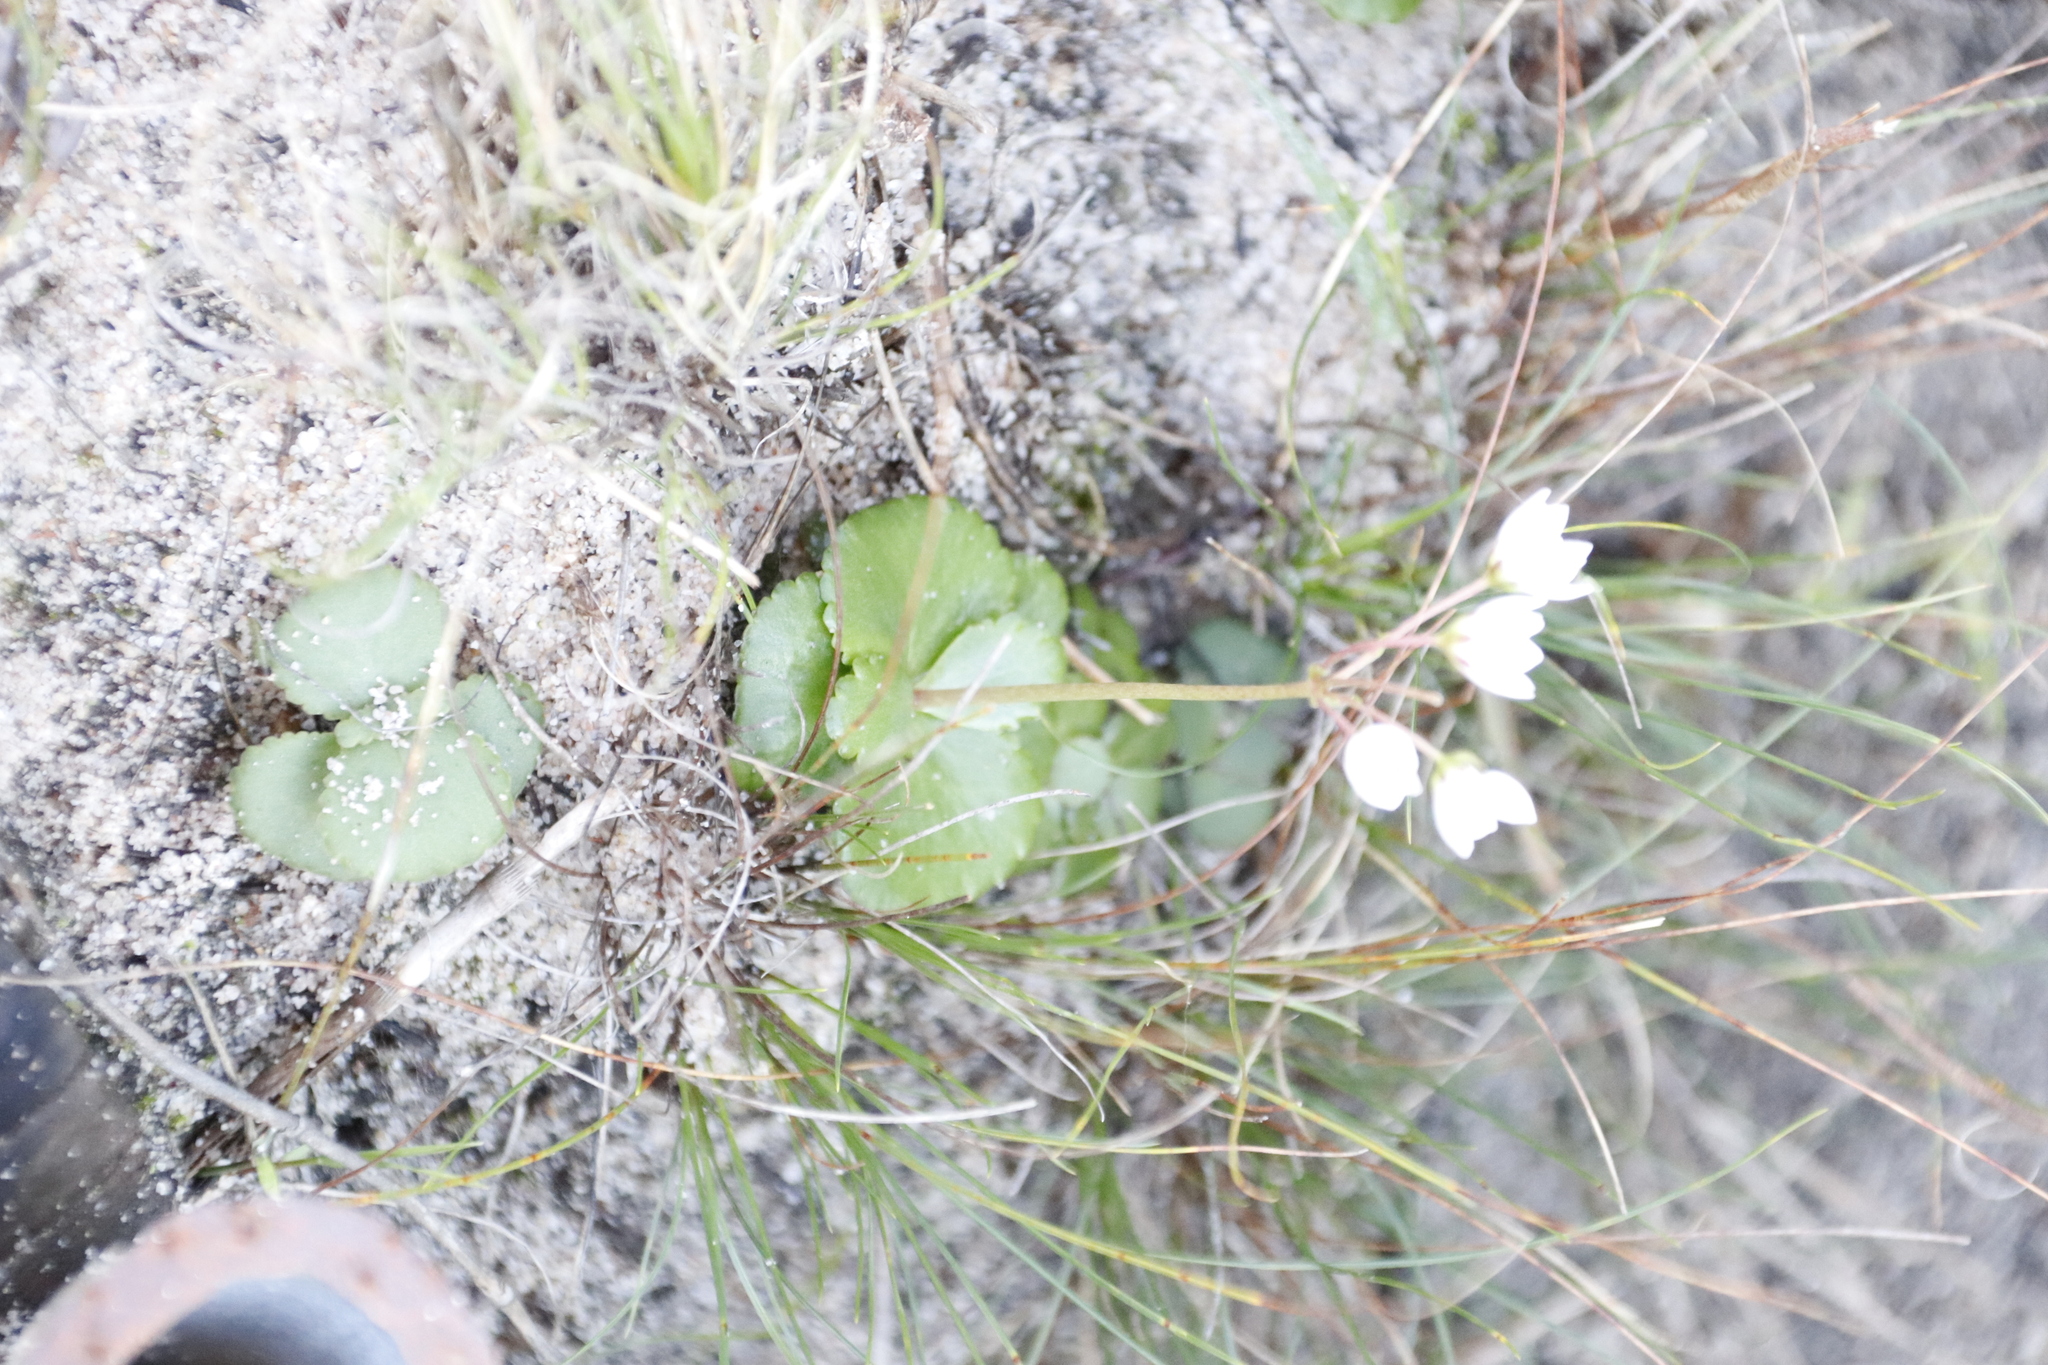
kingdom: Plantae
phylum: Tracheophyta
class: Magnoliopsida
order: Saxifragales
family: Crassulaceae
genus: Crassula
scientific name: Crassula capensis
